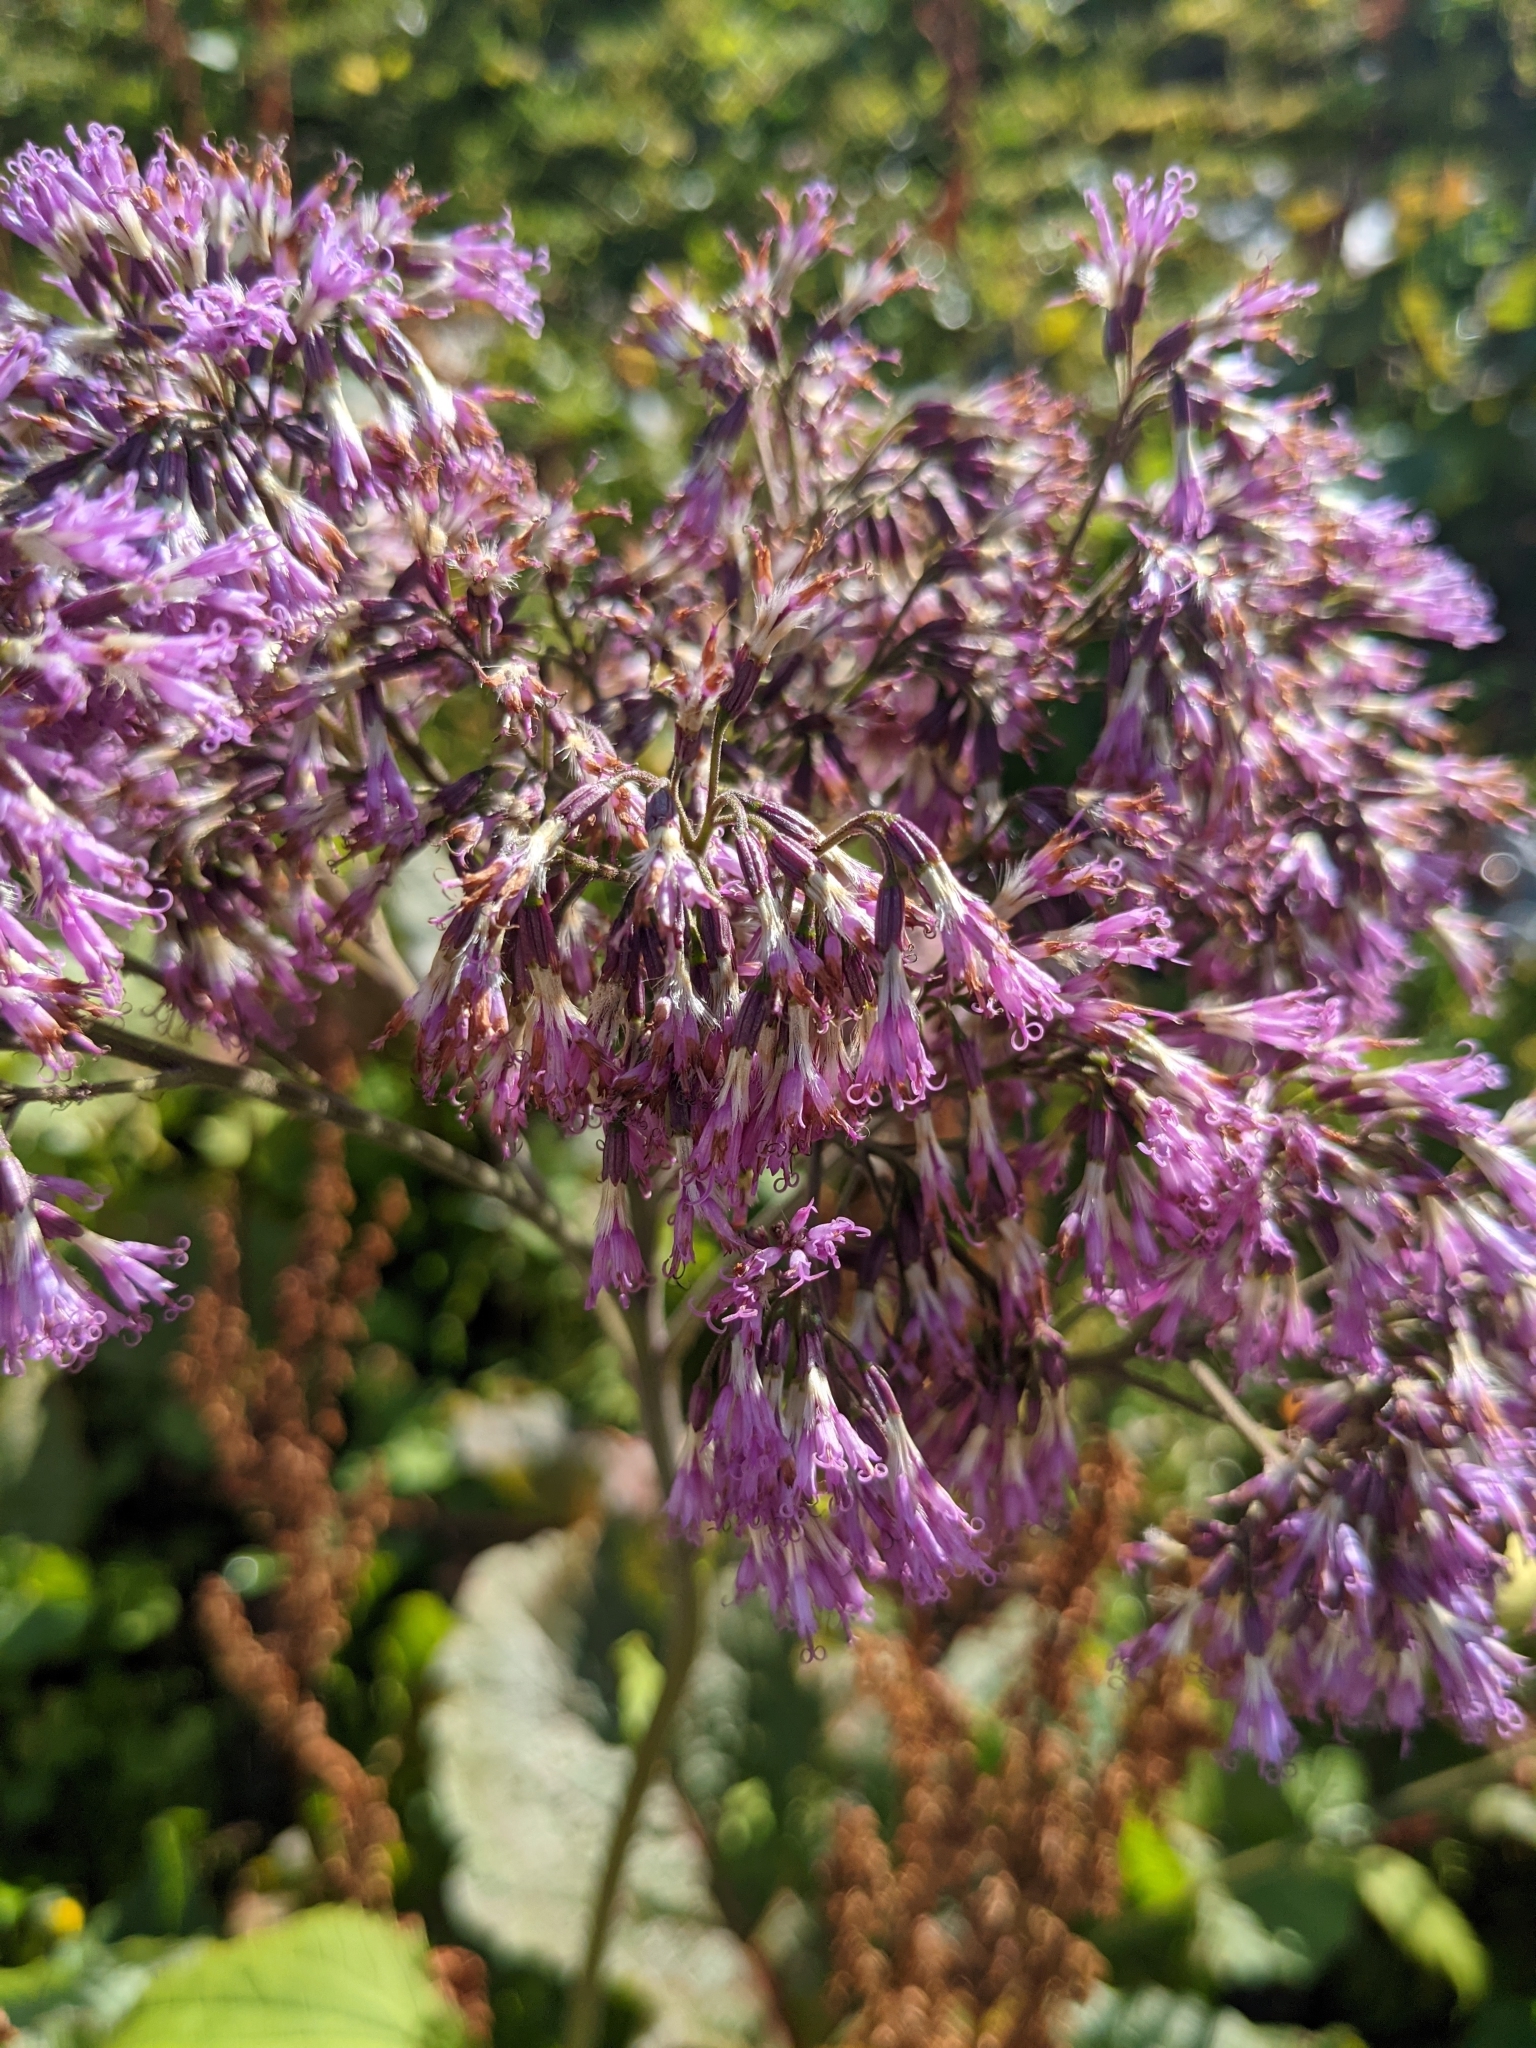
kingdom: Plantae
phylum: Tracheophyta
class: Magnoliopsida
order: Asterales
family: Asteraceae
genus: Adenostyles
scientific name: Adenostyles alliariae
